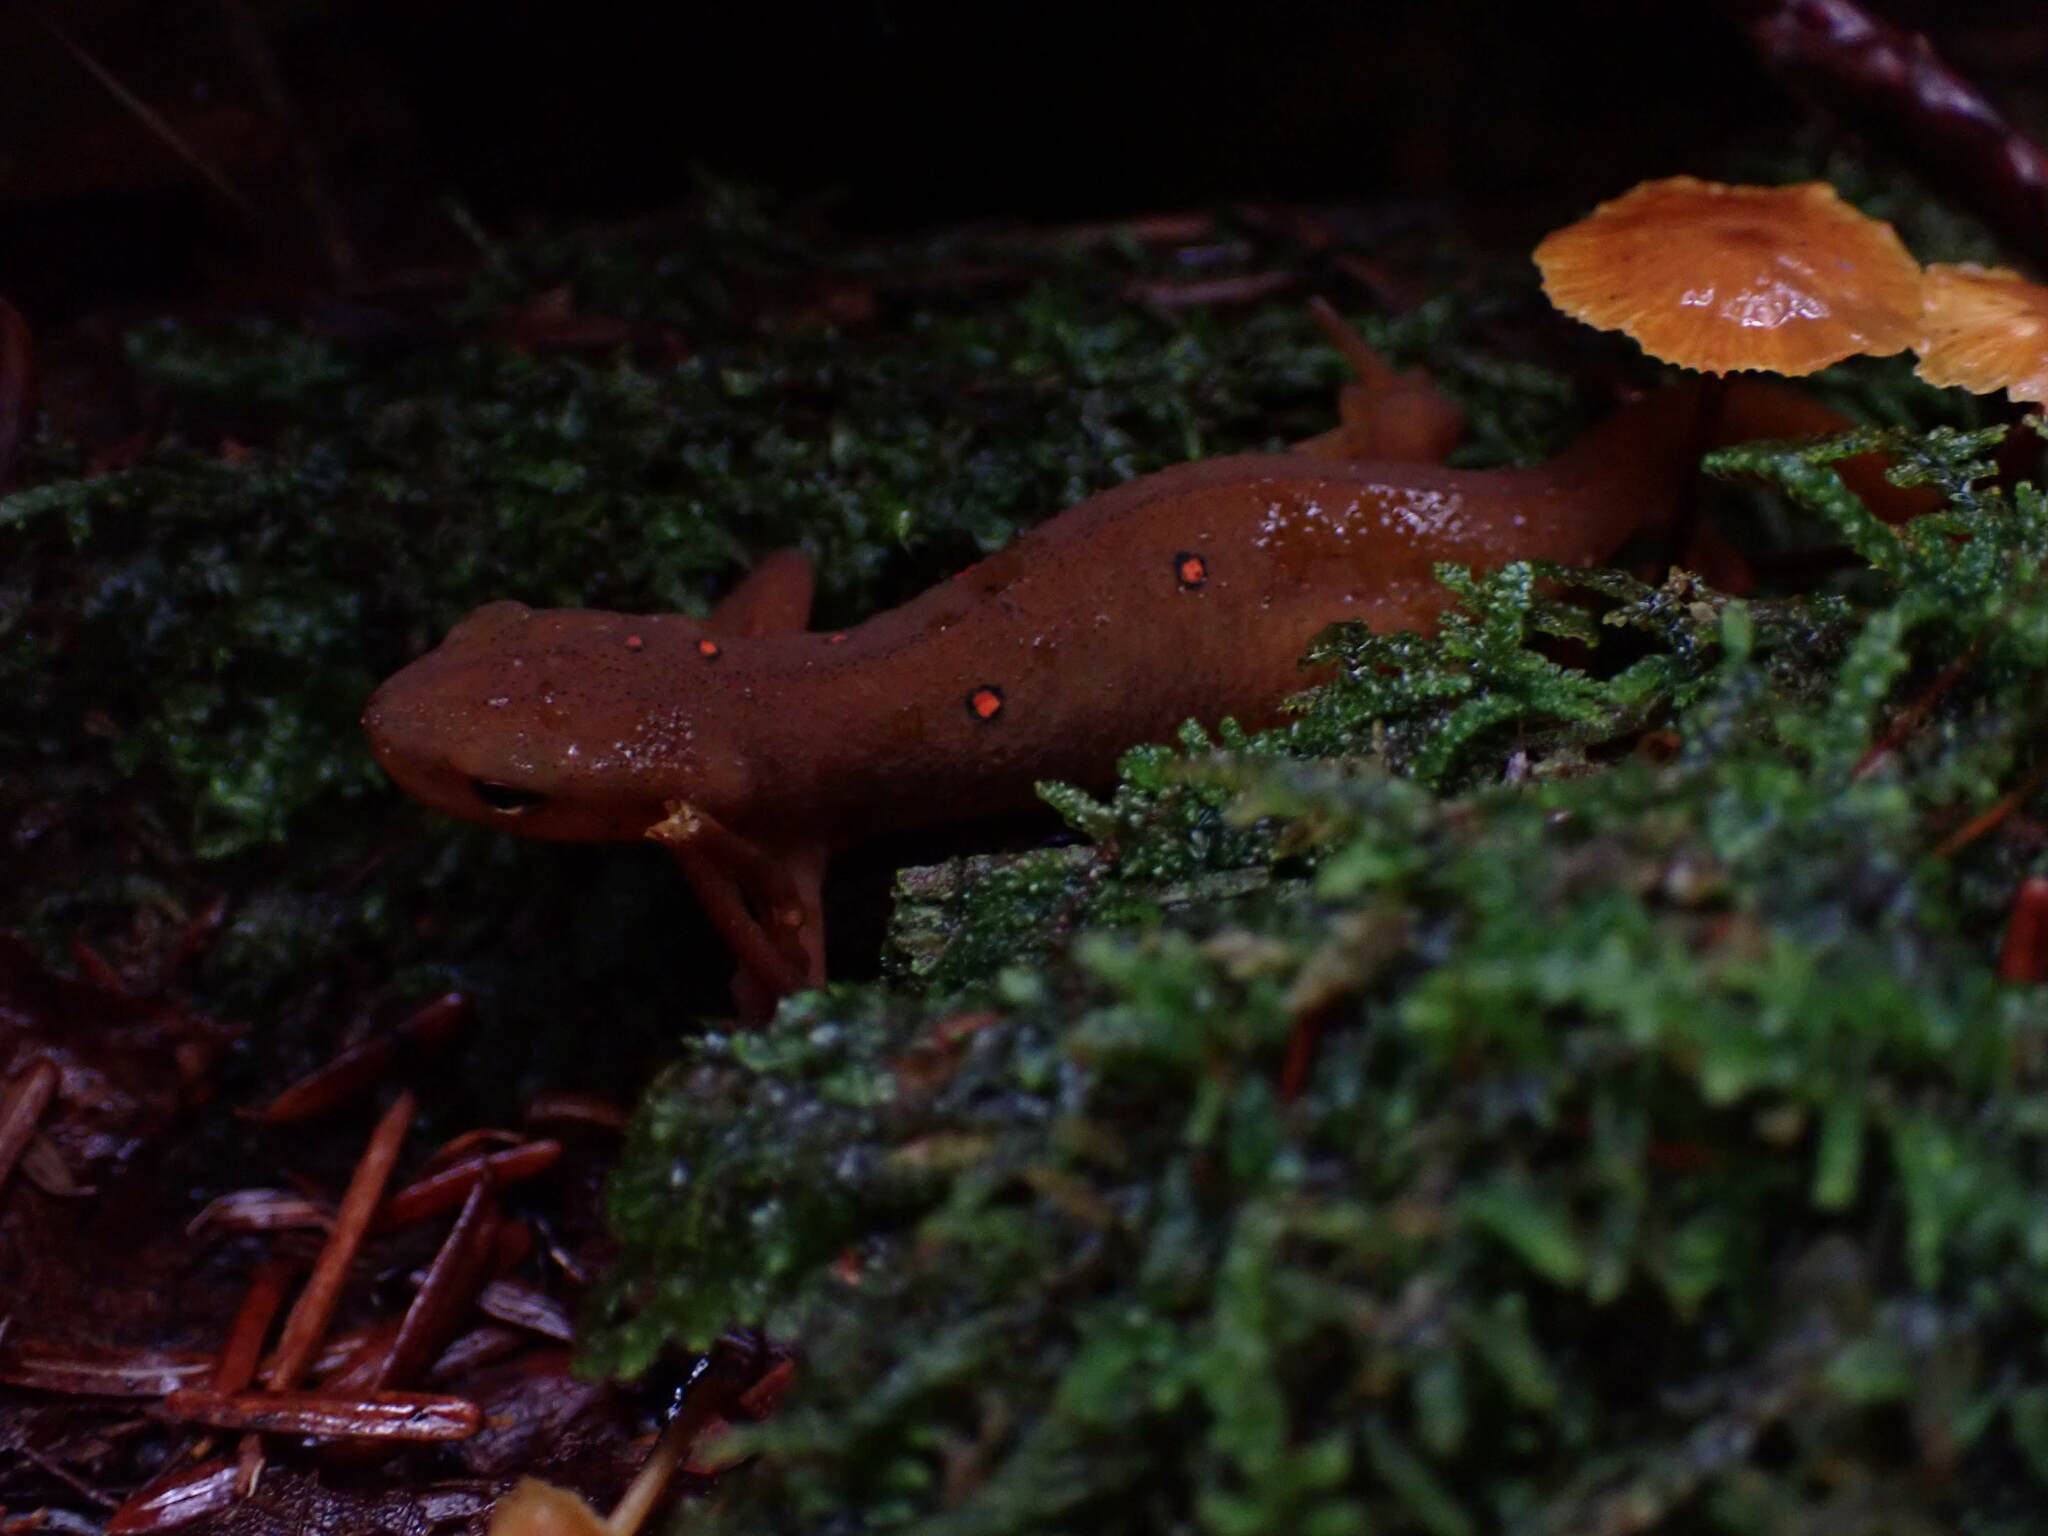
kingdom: Animalia
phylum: Chordata
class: Amphibia
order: Caudata
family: Salamandridae
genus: Notophthalmus
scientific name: Notophthalmus viridescens
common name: Eastern newt
